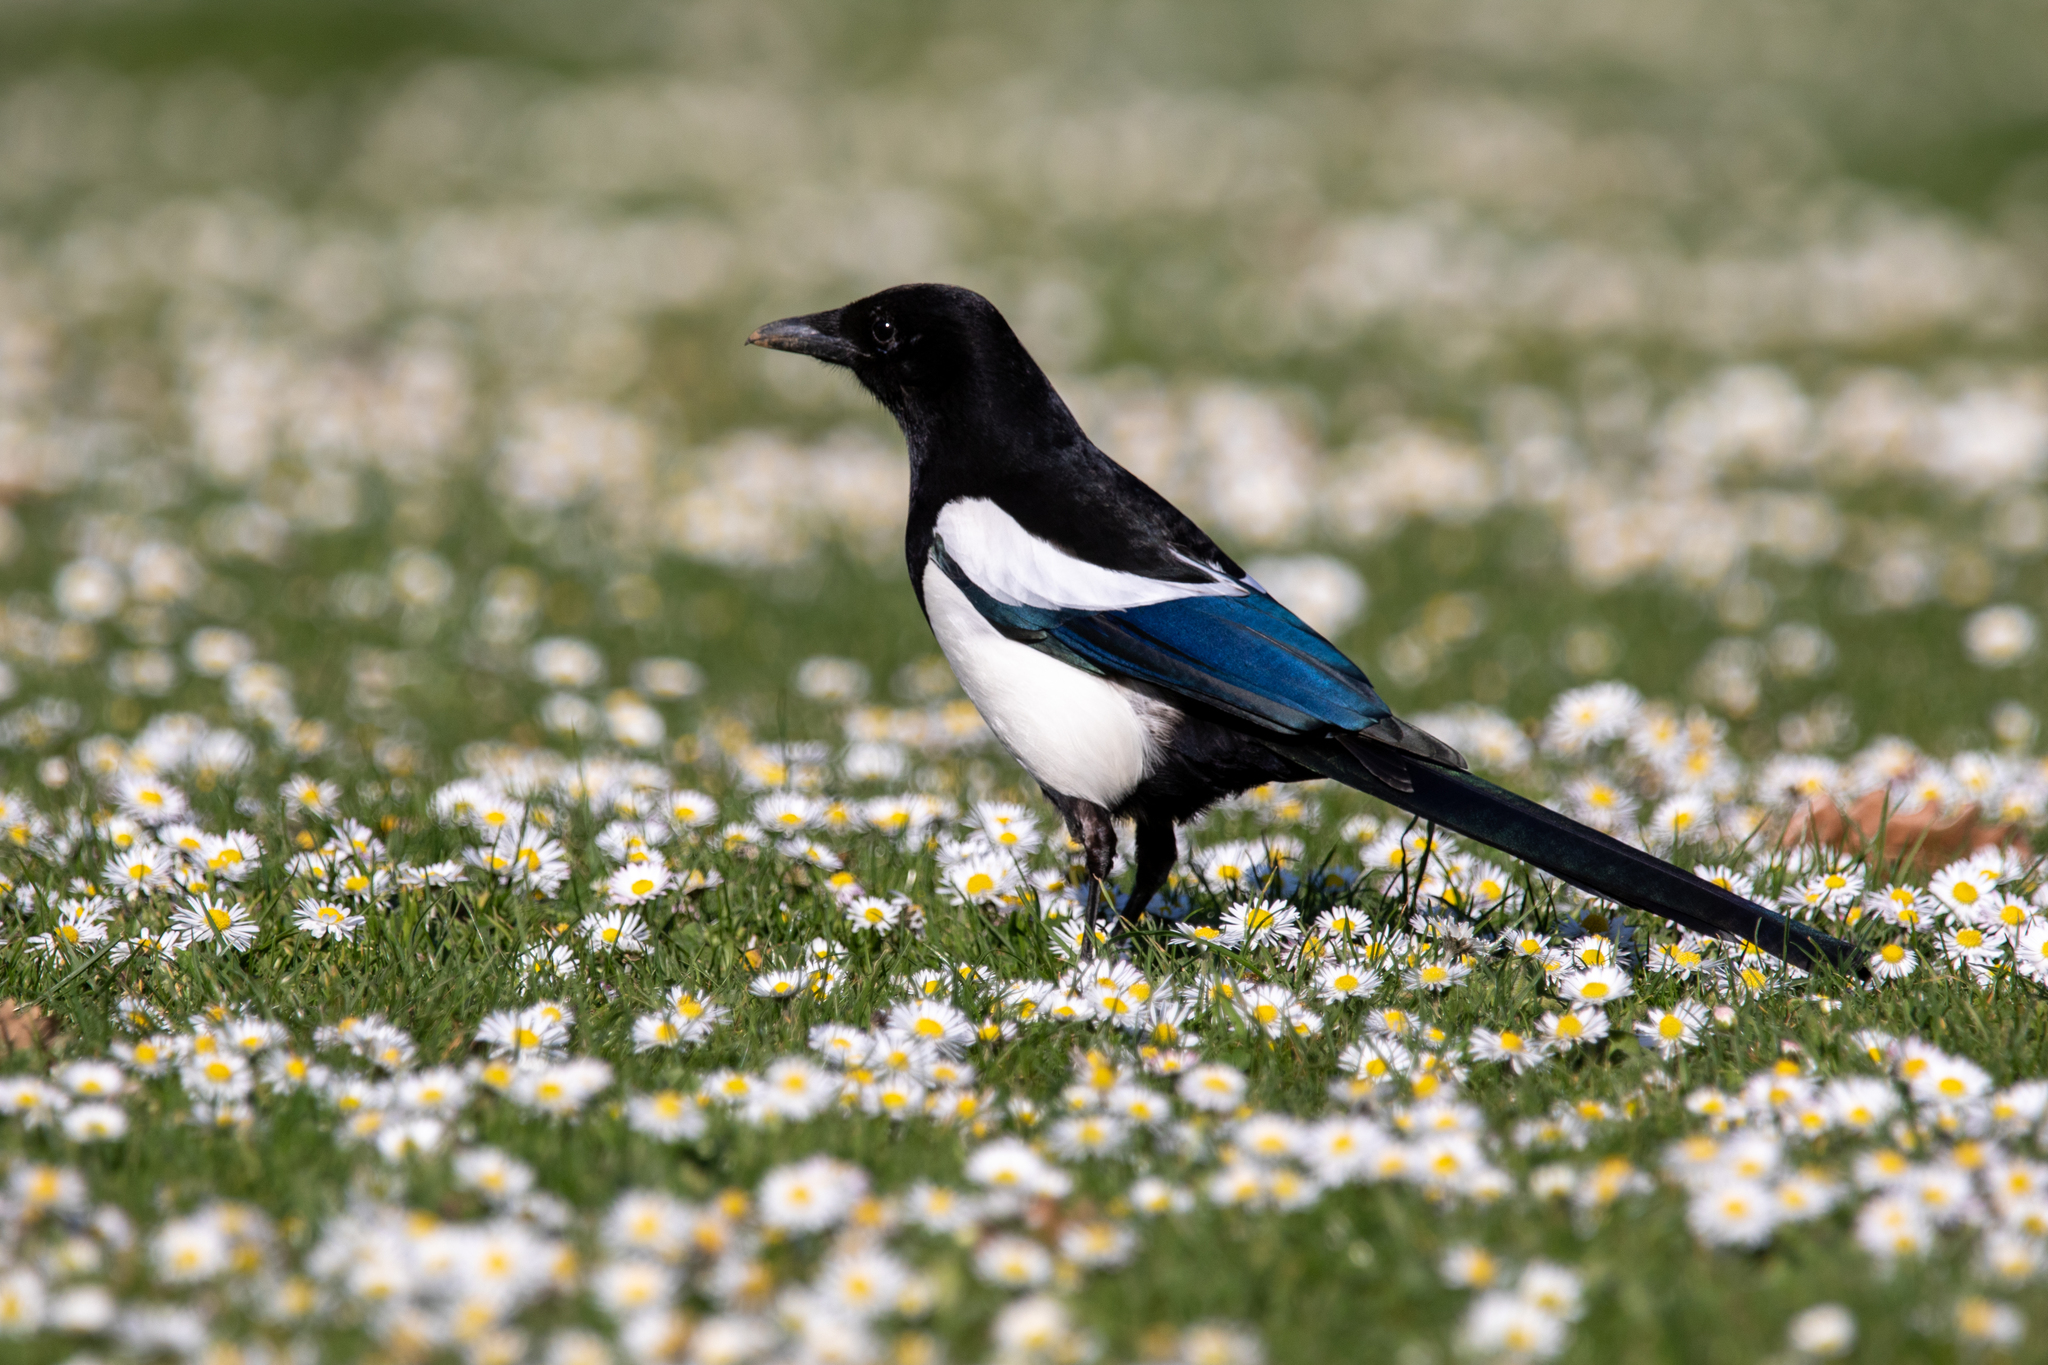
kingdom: Animalia
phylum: Chordata
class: Aves
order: Passeriformes
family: Corvidae
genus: Pica
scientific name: Pica pica
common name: Eurasian magpie
